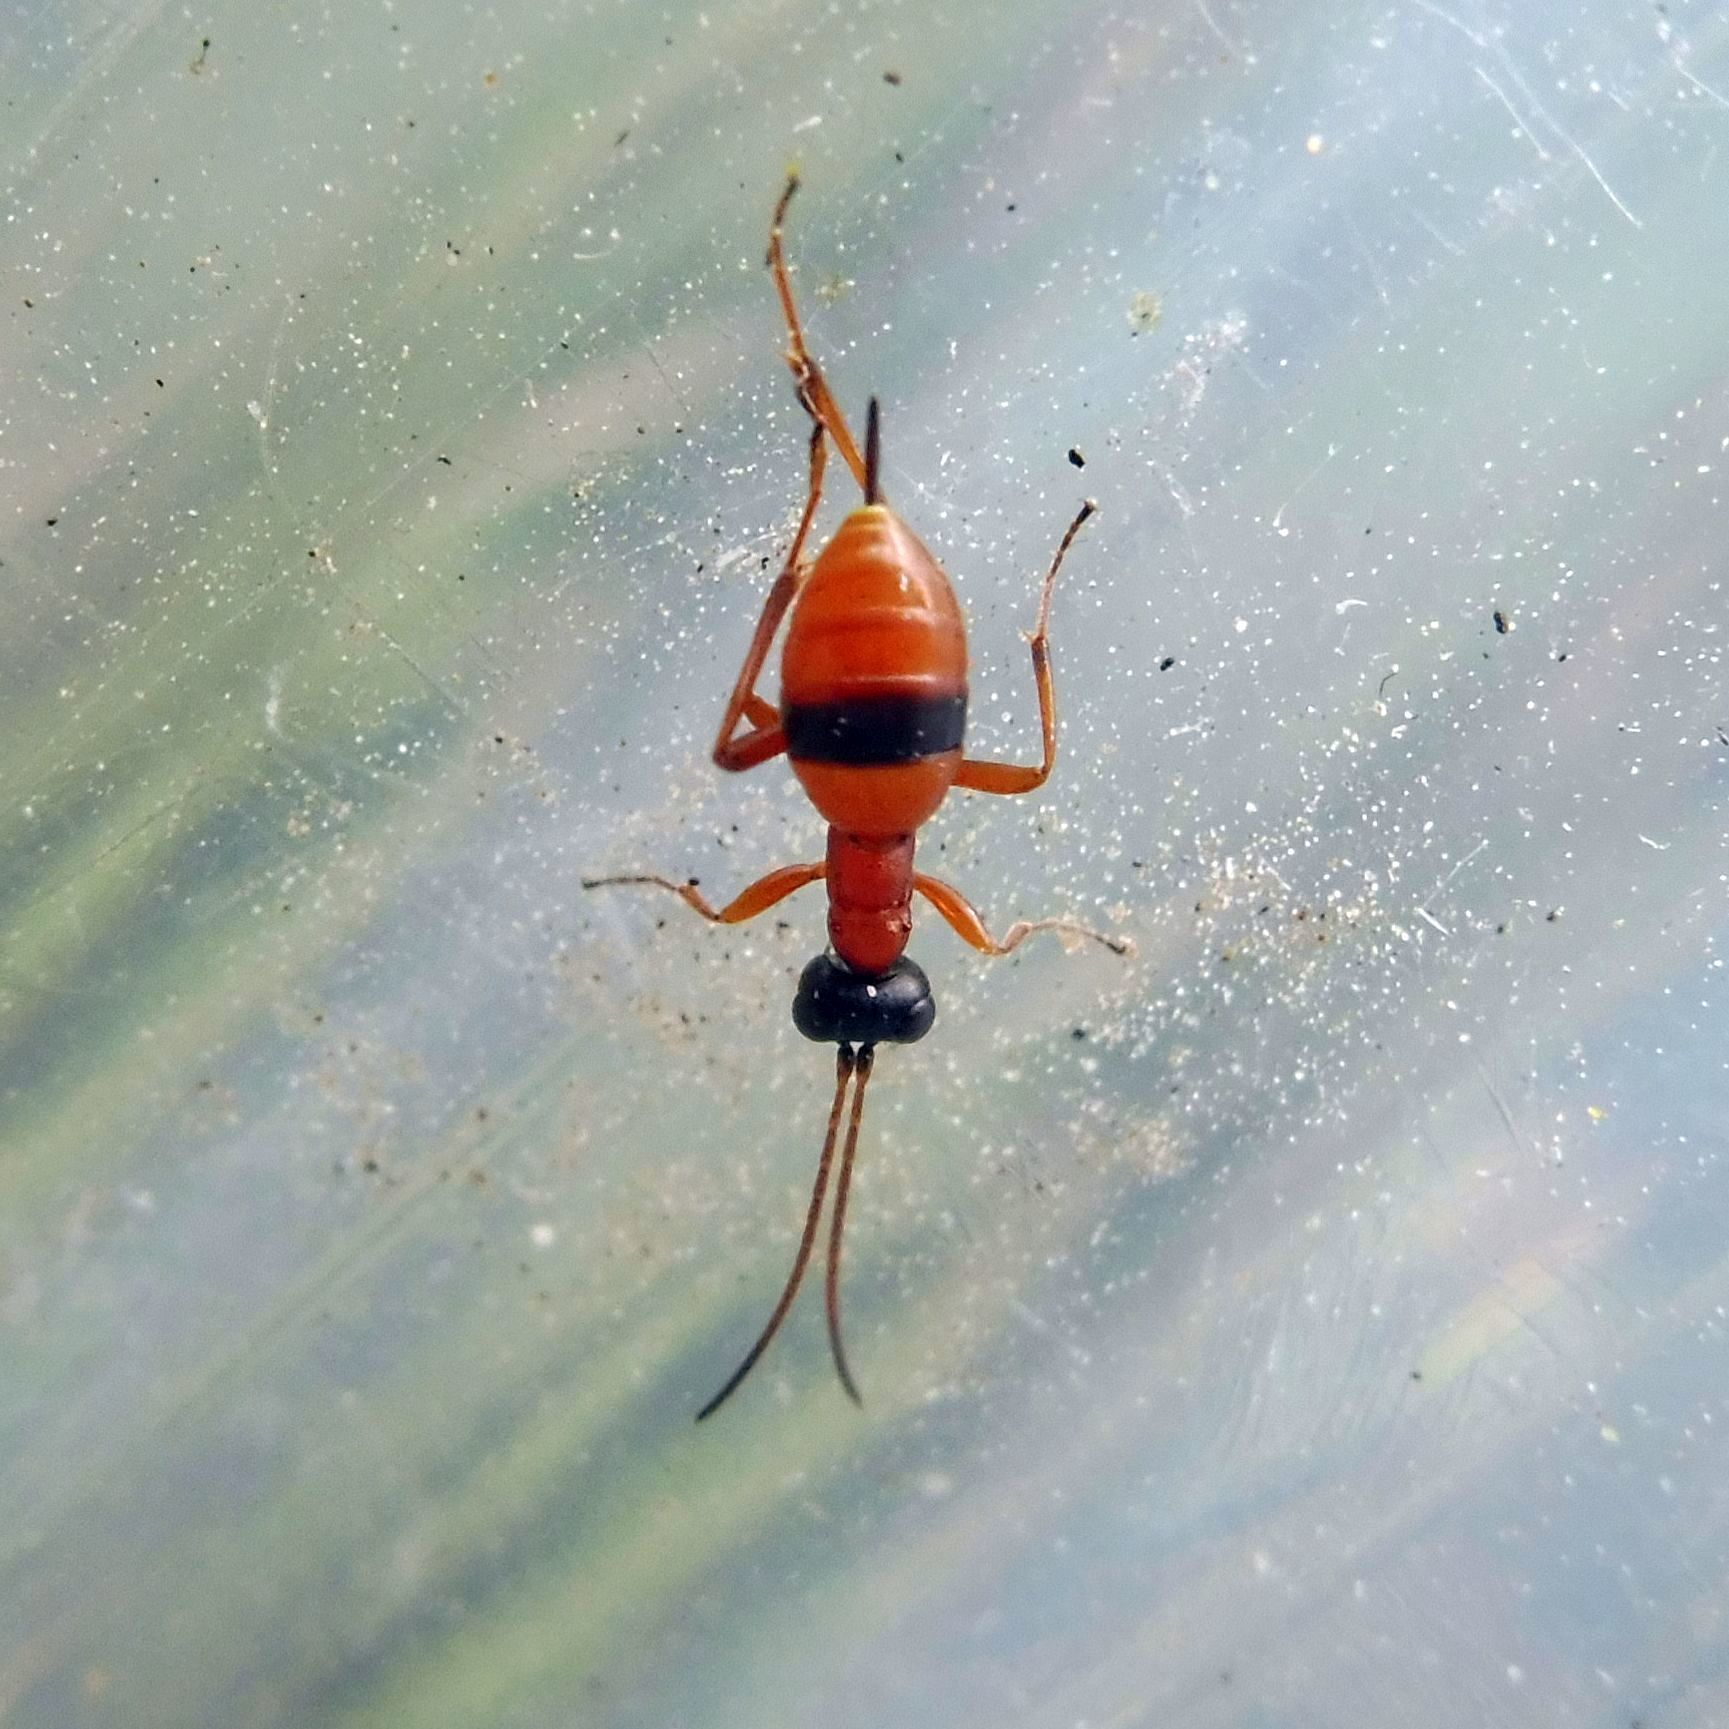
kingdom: Animalia
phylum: Arthropoda
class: Insecta
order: Hymenoptera
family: Ichneumonidae
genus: Gelis
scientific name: Gelis melanocephalus
